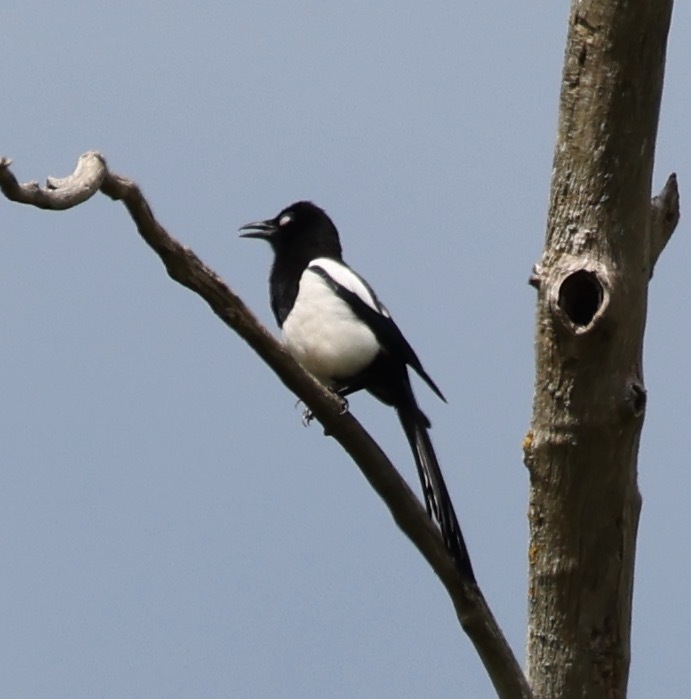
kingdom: Animalia
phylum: Chordata
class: Aves
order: Passeriformes
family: Corvidae
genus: Pica
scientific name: Pica pica
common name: Eurasian magpie
